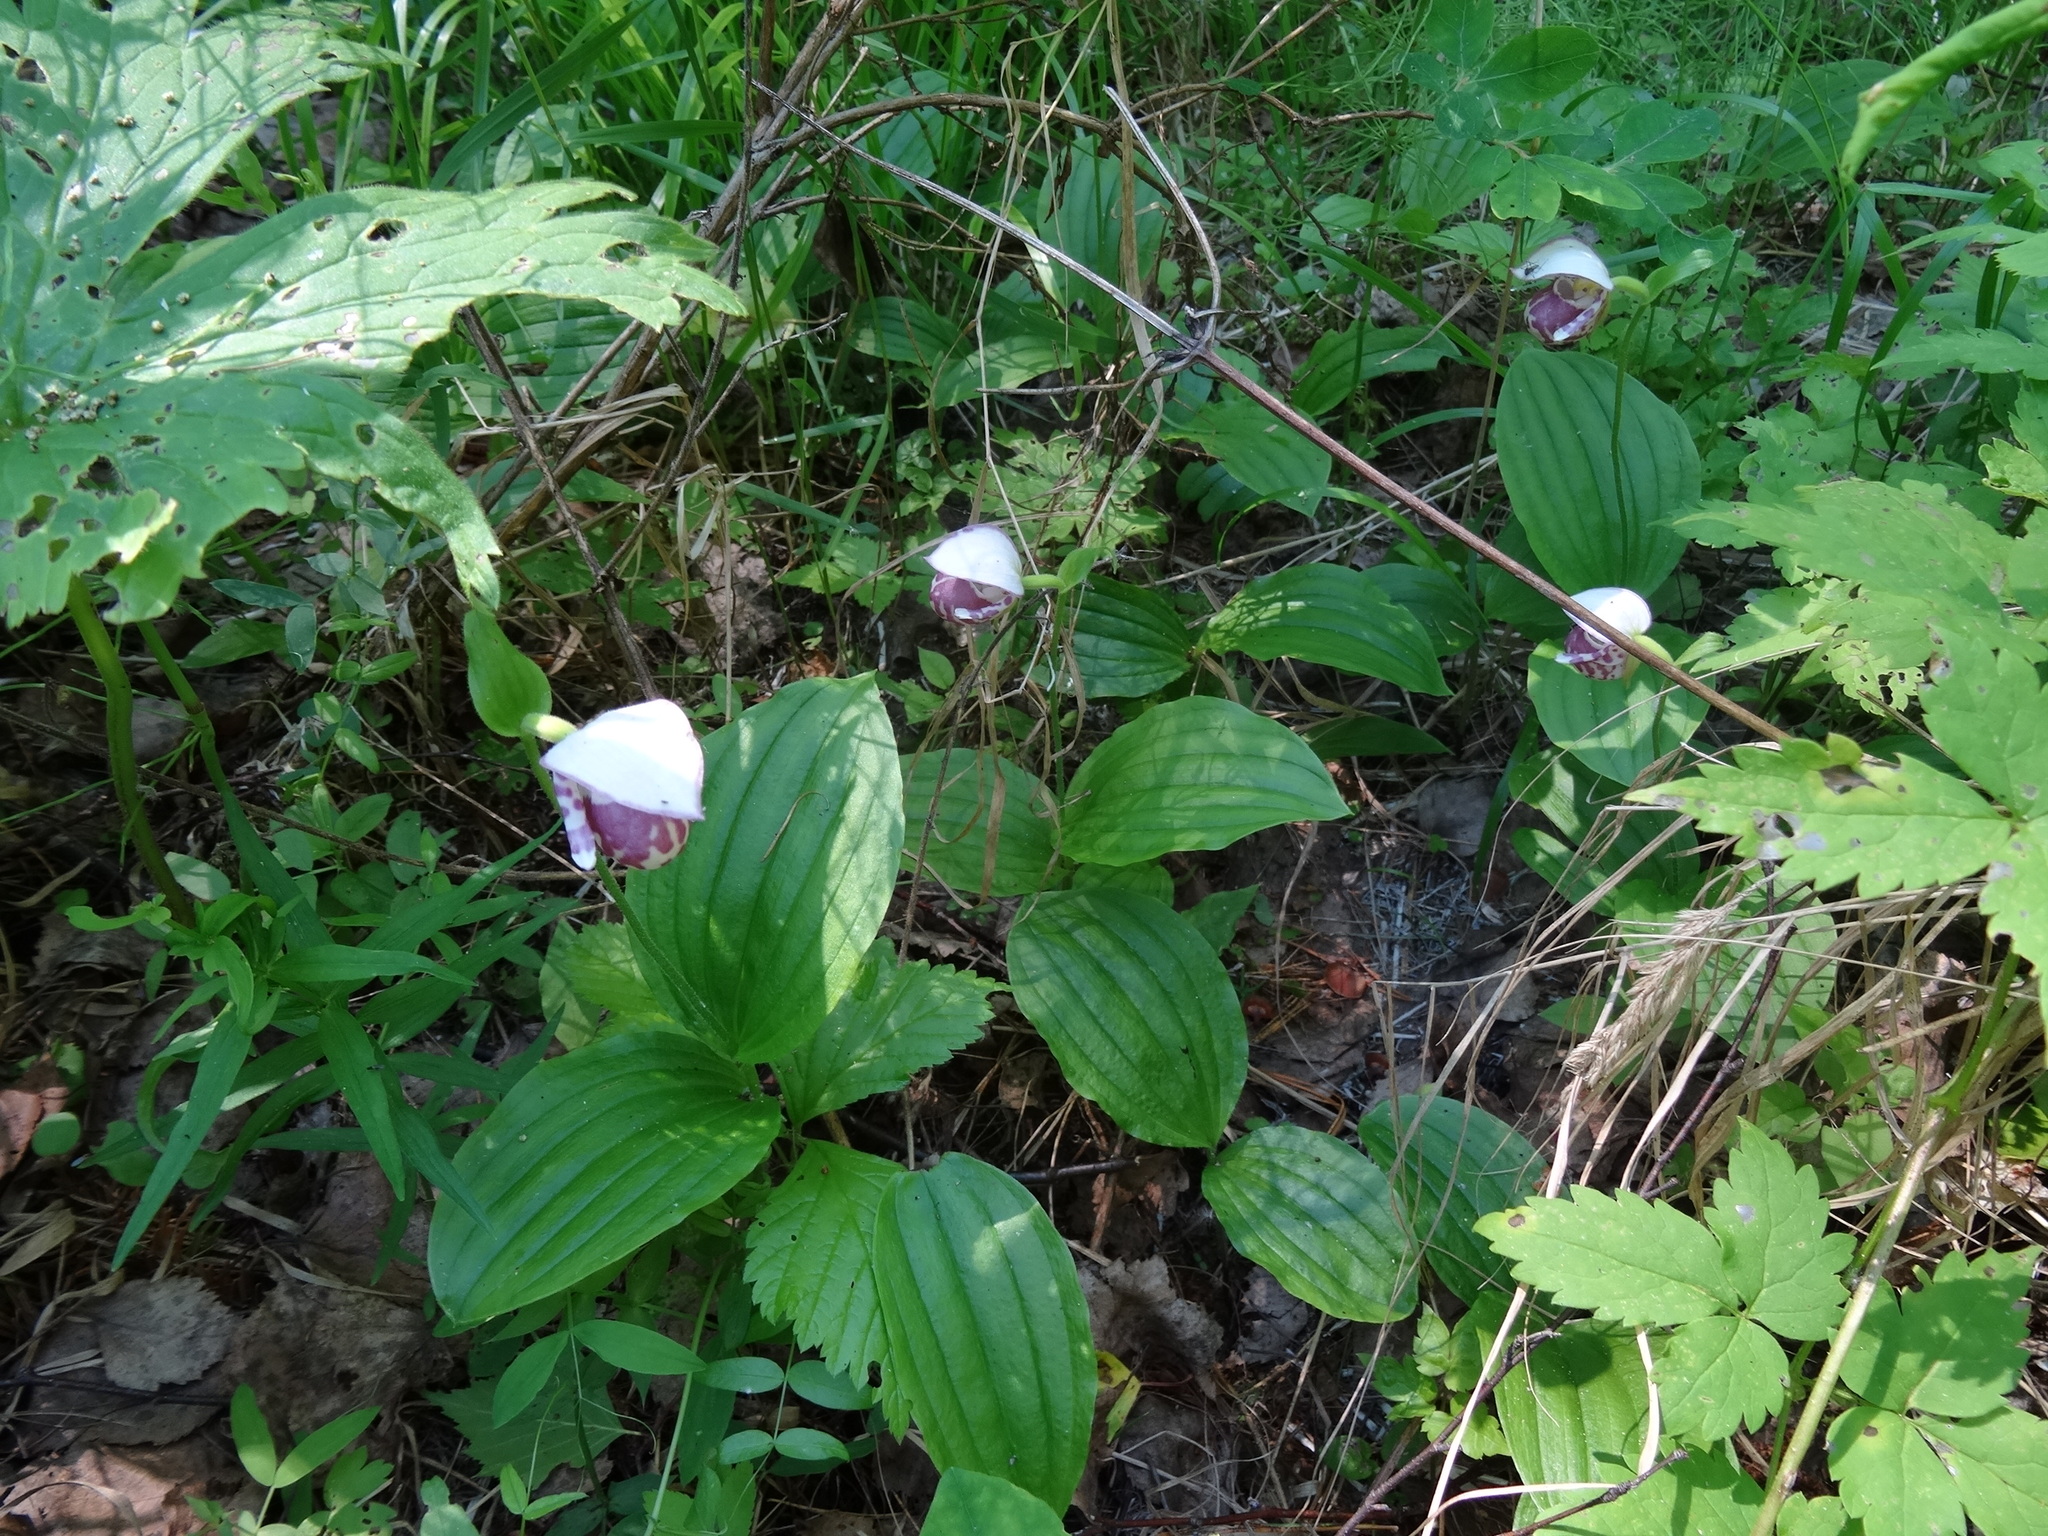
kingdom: Plantae
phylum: Tracheophyta
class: Liliopsida
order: Asparagales
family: Orchidaceae
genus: Cypripedium
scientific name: Cypripedium guttatum
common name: Pink lady slipper
